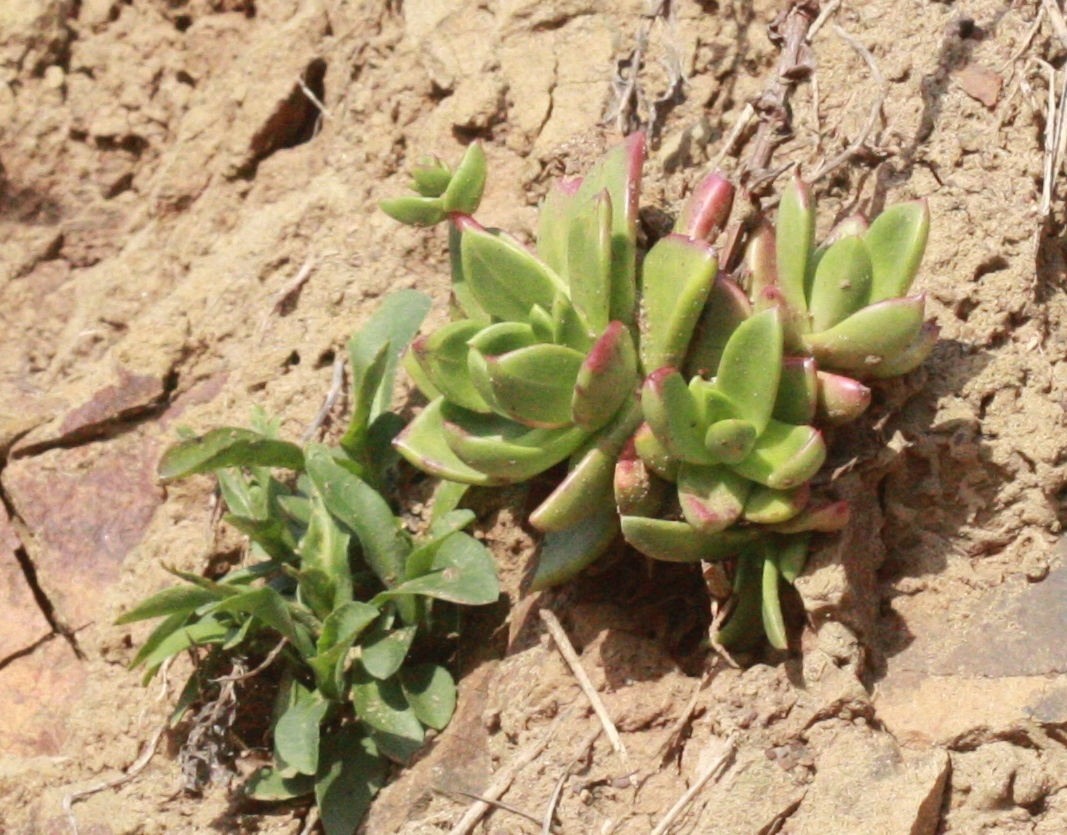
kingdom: Plantae
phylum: Tracheophyta
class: Magnoliopsida
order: Saxifragales
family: Crassulaceae
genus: Dudleya
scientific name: Dudleya farinosa
